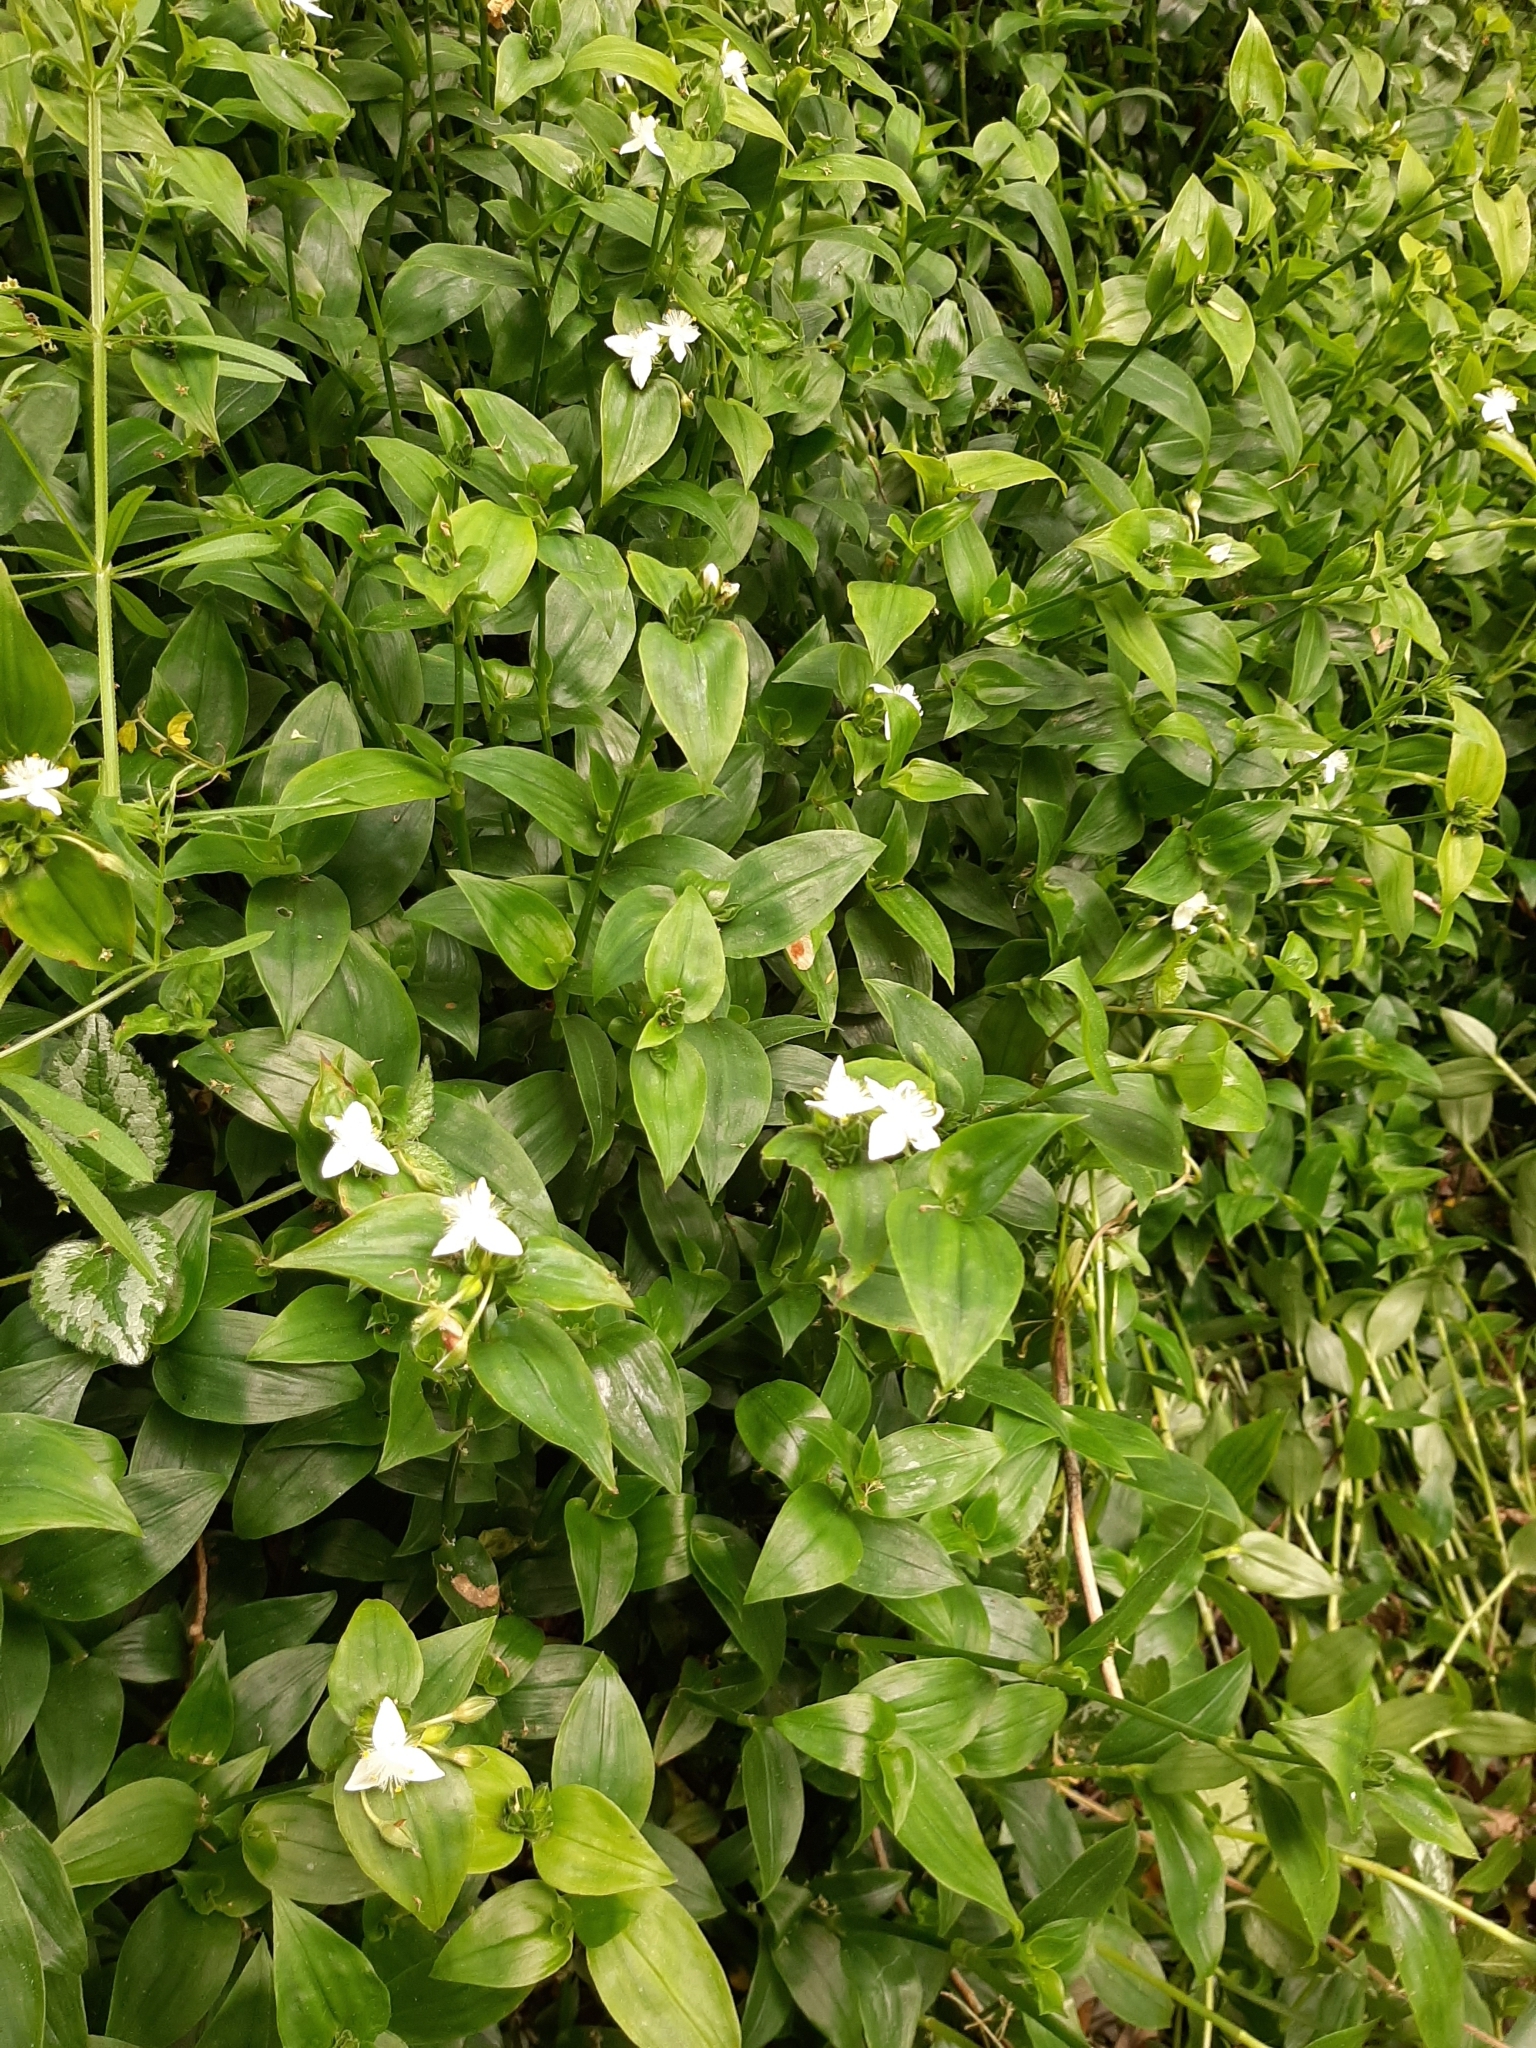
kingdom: Plantae
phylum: Tracheophyta
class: Liliopsida
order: Commelinales
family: Commelinaceae
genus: Tradescantia
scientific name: Tradescantia fluminensis
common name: Wandering-jew
